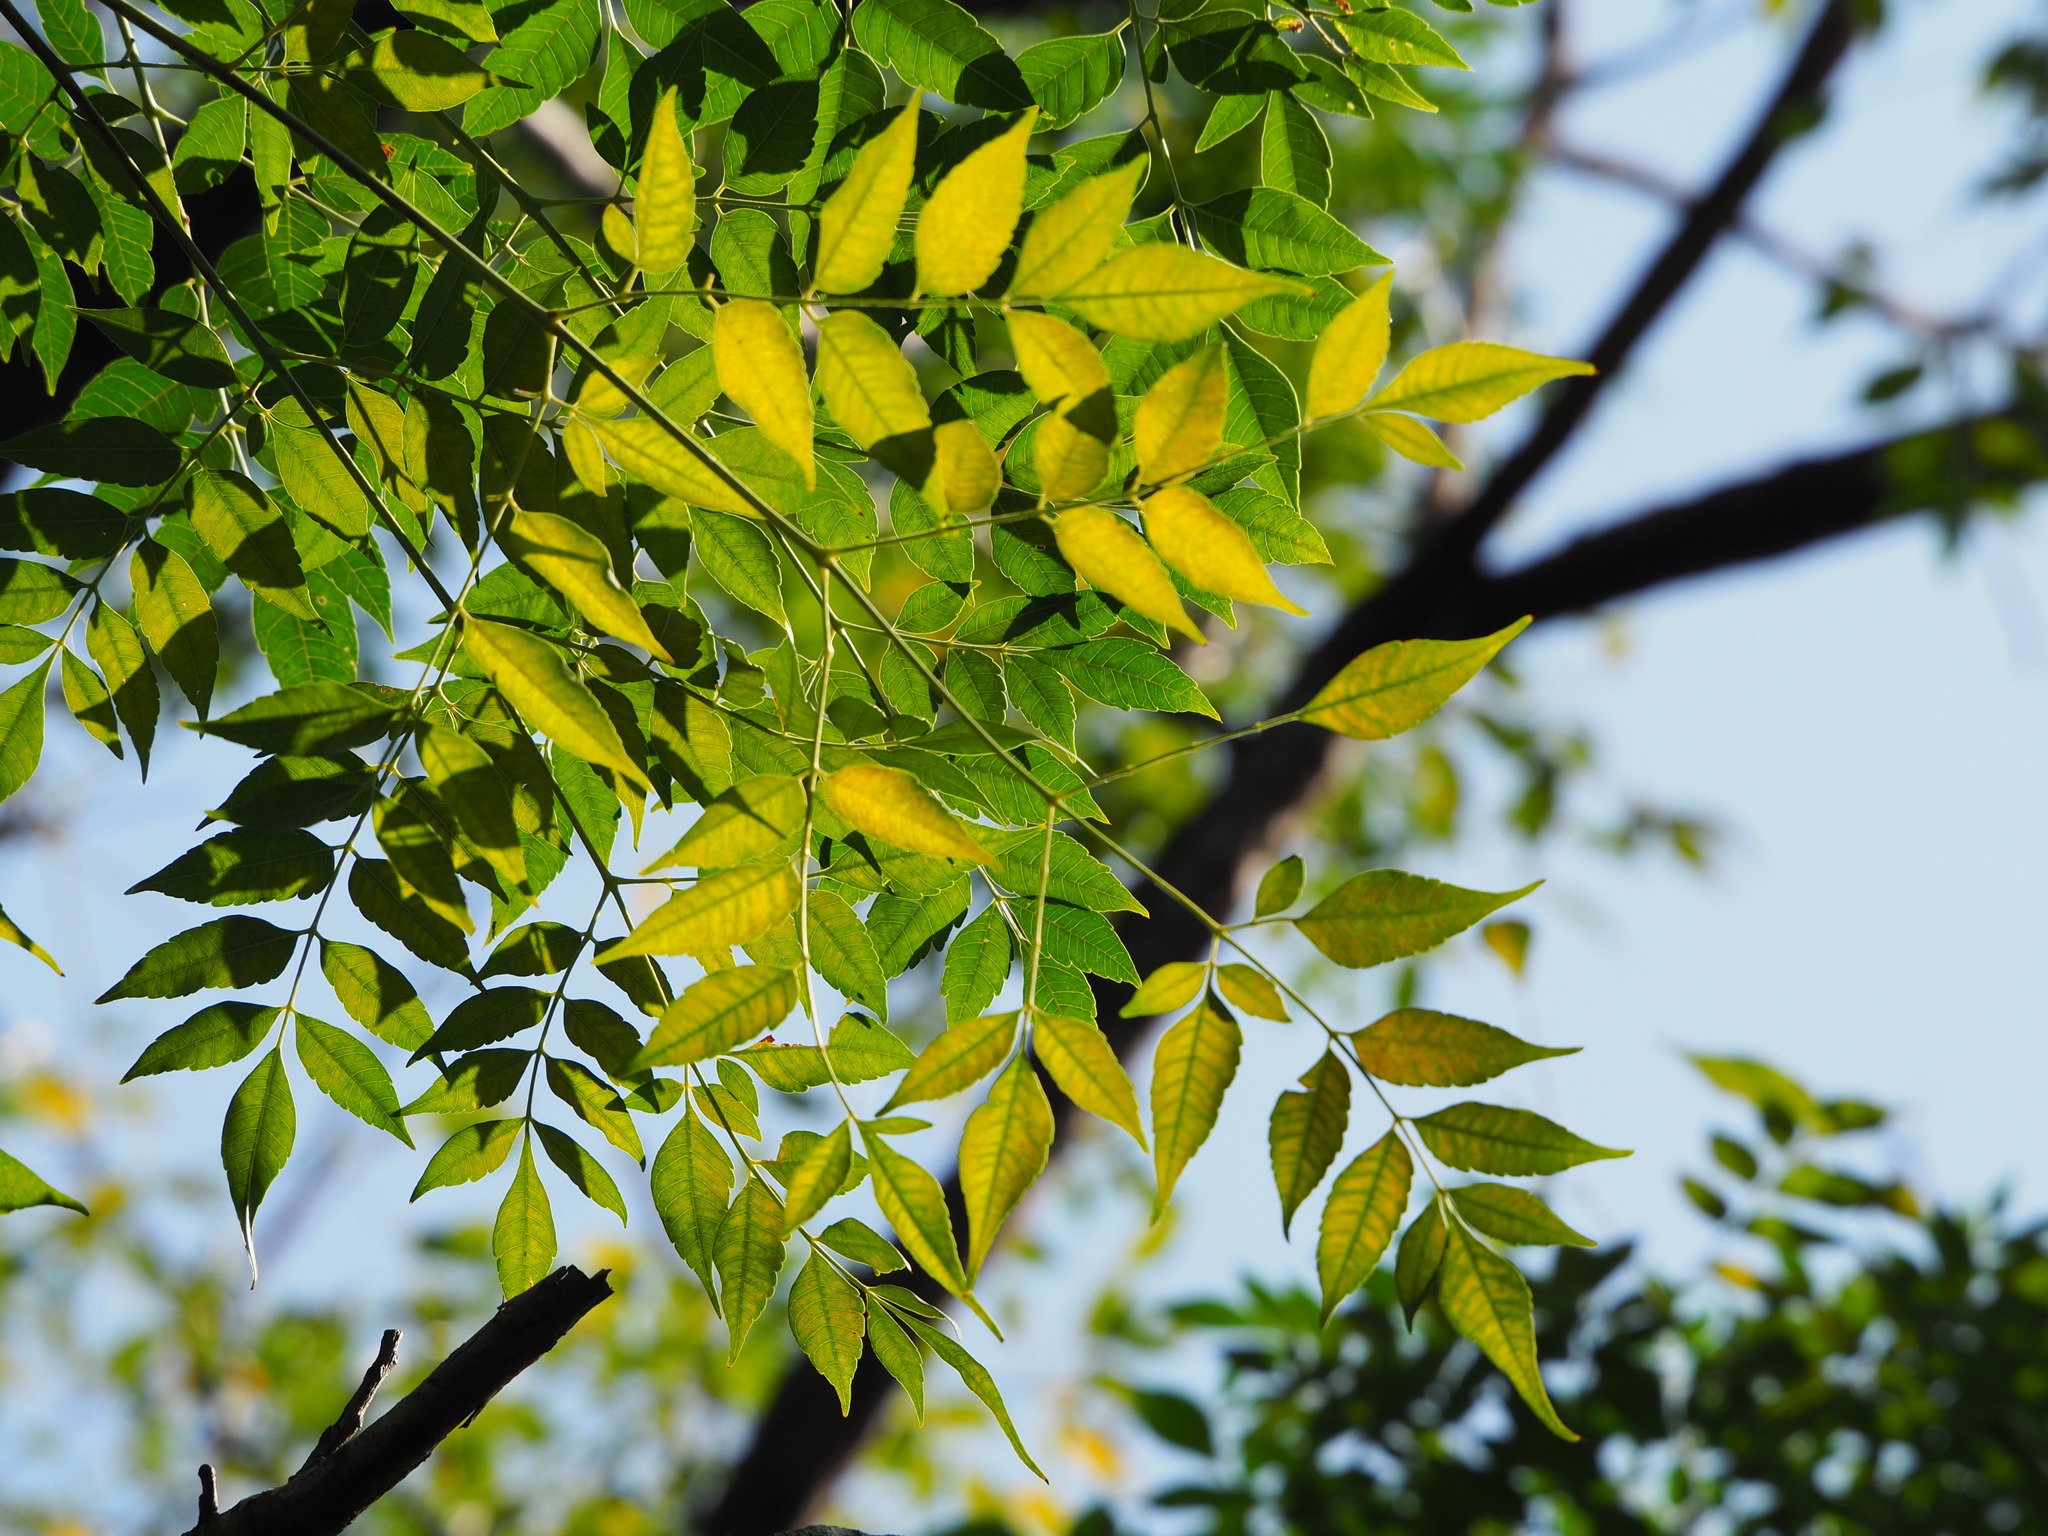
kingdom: Plantae
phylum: Tracheophyta
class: Magnoliopsida
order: Sapindales
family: Meliaceae
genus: Melia
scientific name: Melia azedarach
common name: Chinaberrytree
